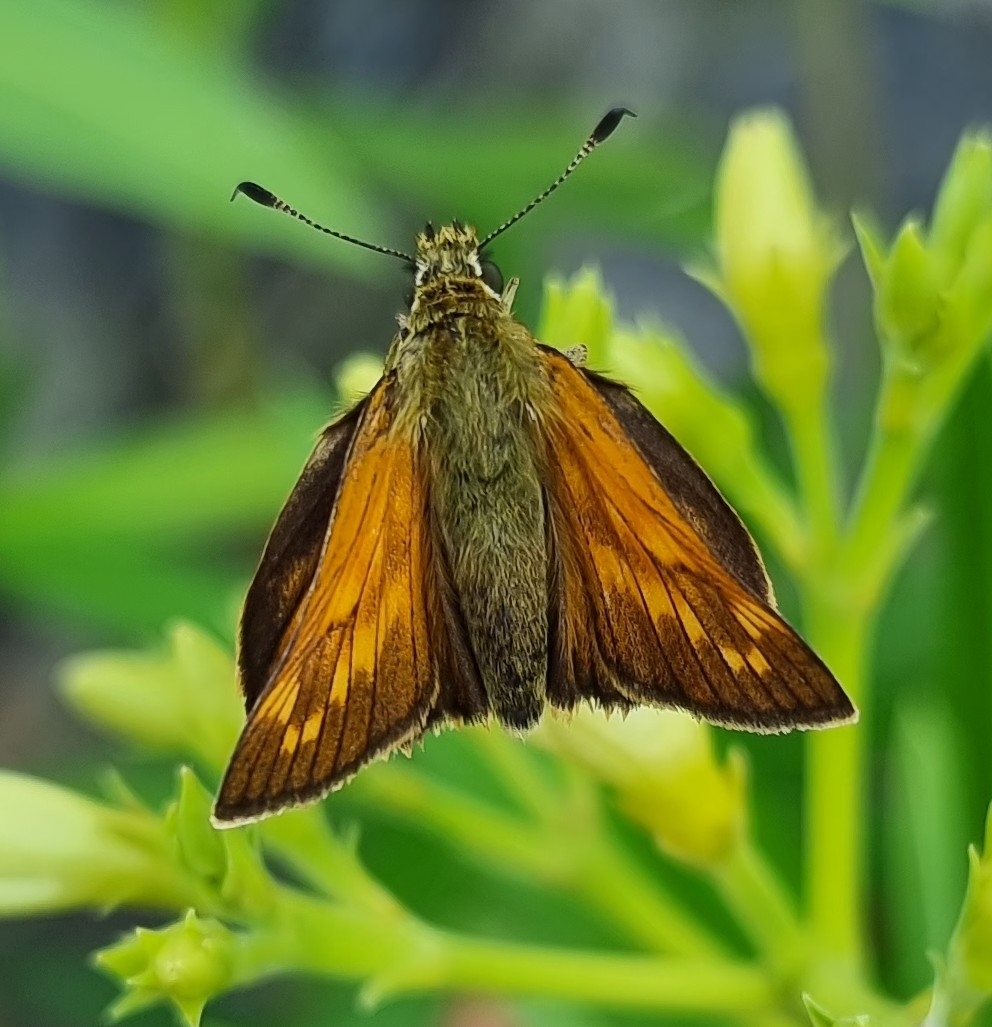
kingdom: Animalia
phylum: Arthropoda
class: Insecta
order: Lepidoptera
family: Hesperiidae
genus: Ochlodes
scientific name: Ochlodes venata
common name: Large skipper
